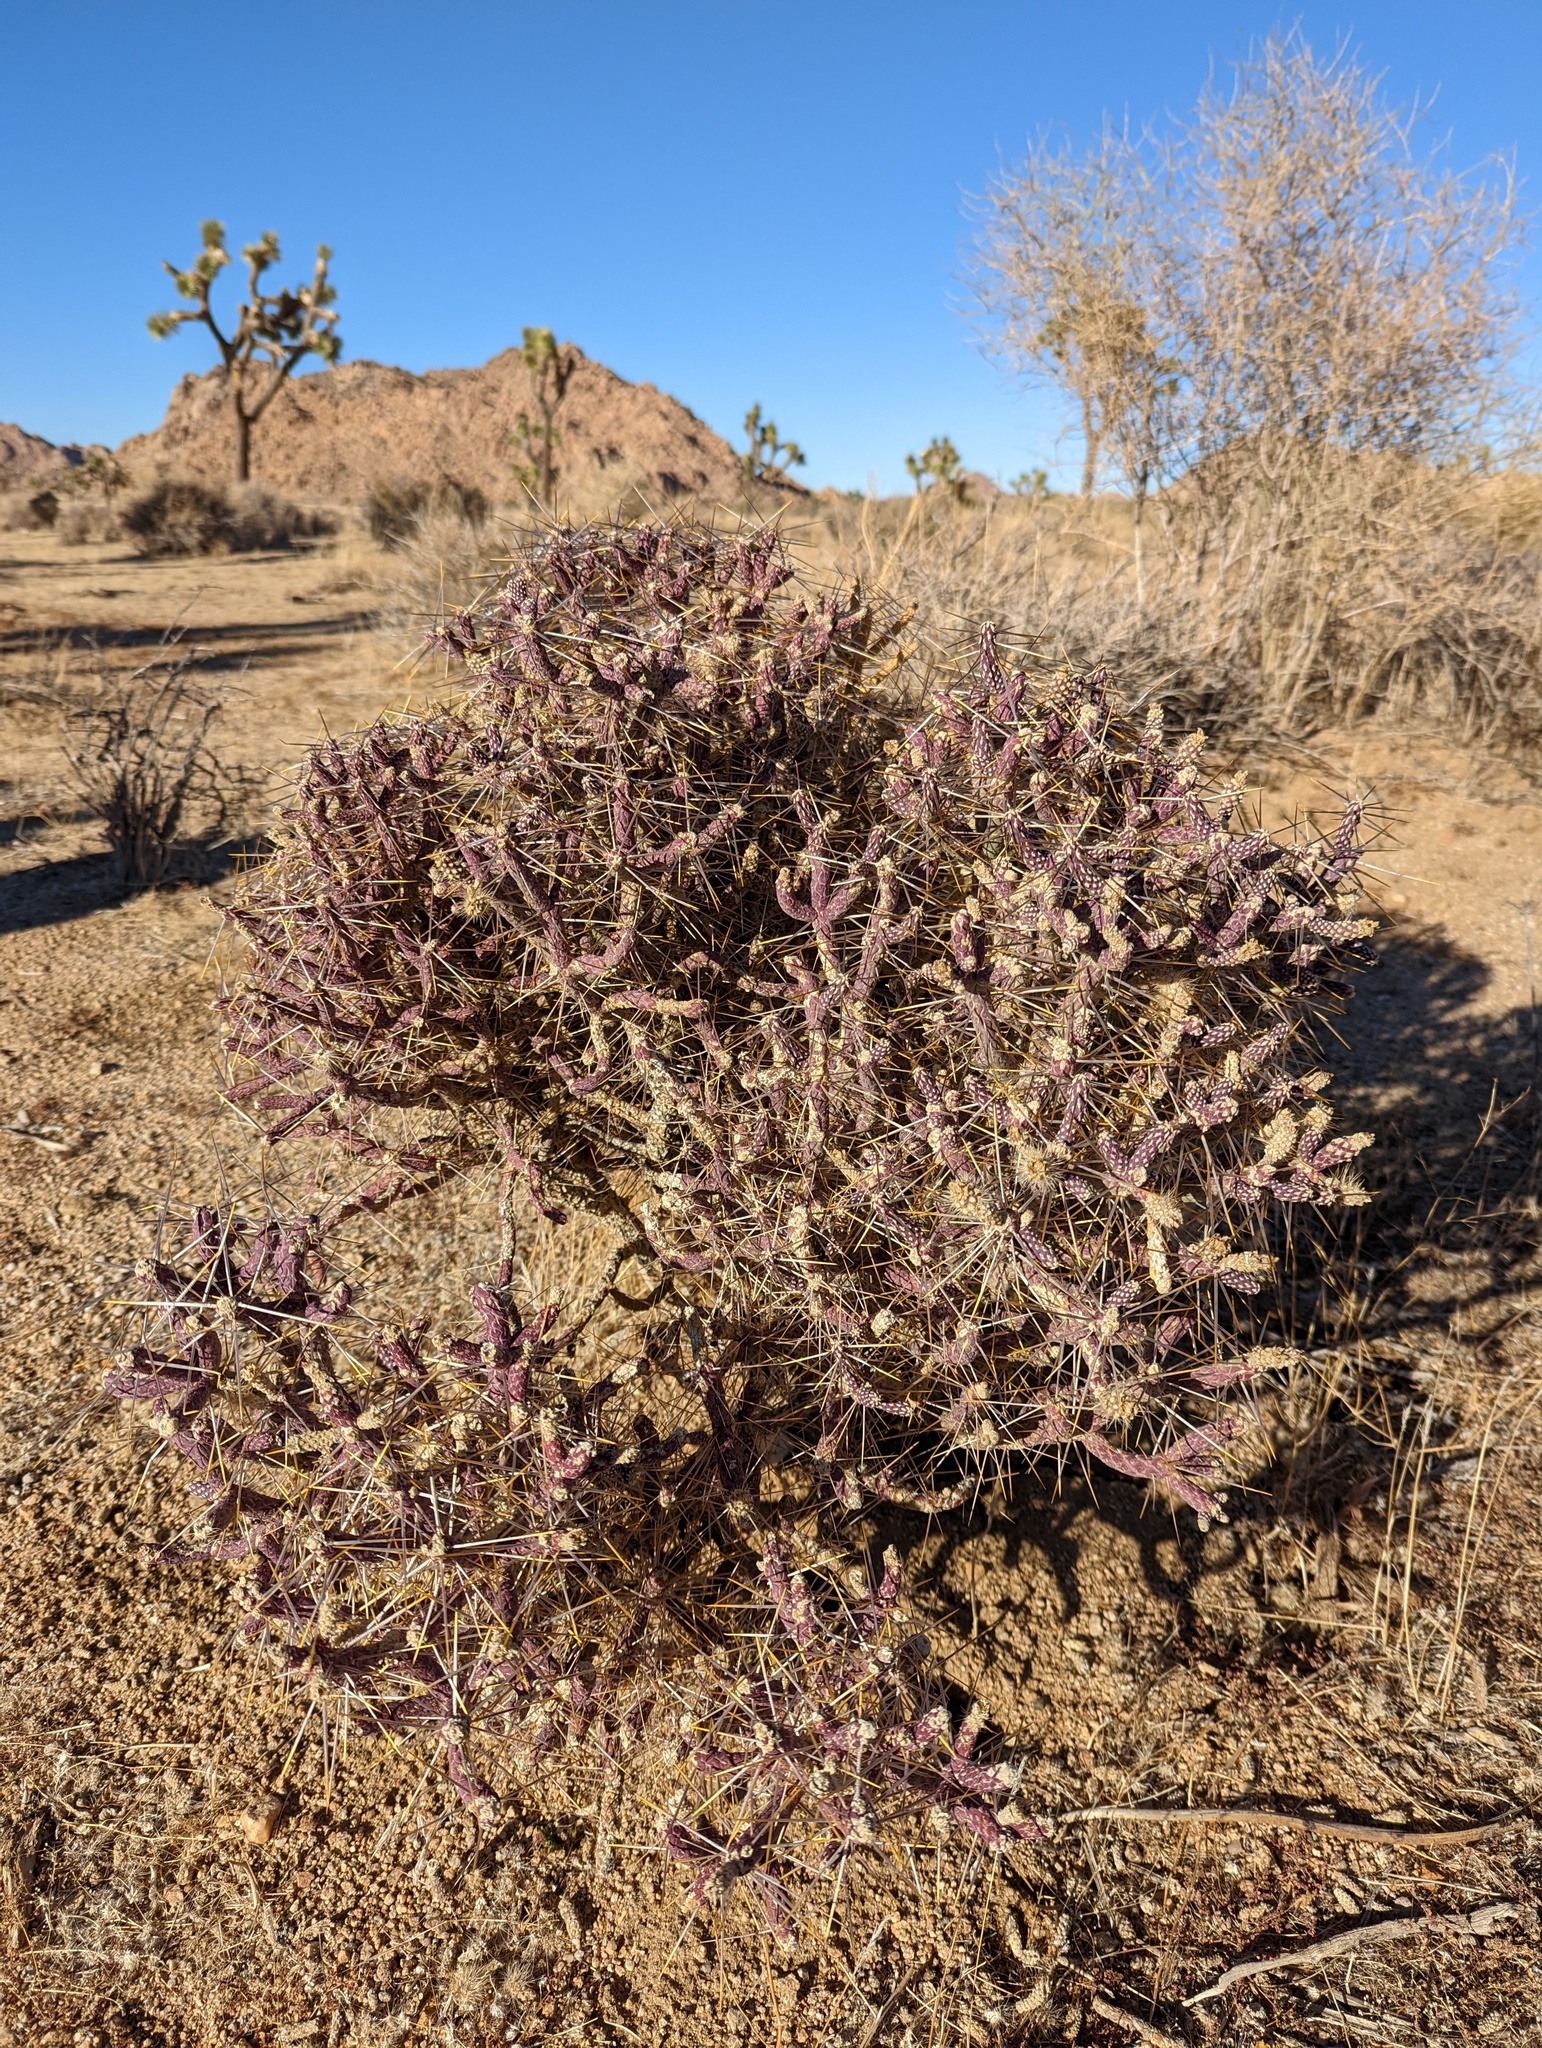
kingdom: Plantae
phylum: Tracheophyta
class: Magnoliopsida
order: Caryophyllales
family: Cactaceae
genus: Cylindropuntia
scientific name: Cylindropuntia ramosissima
